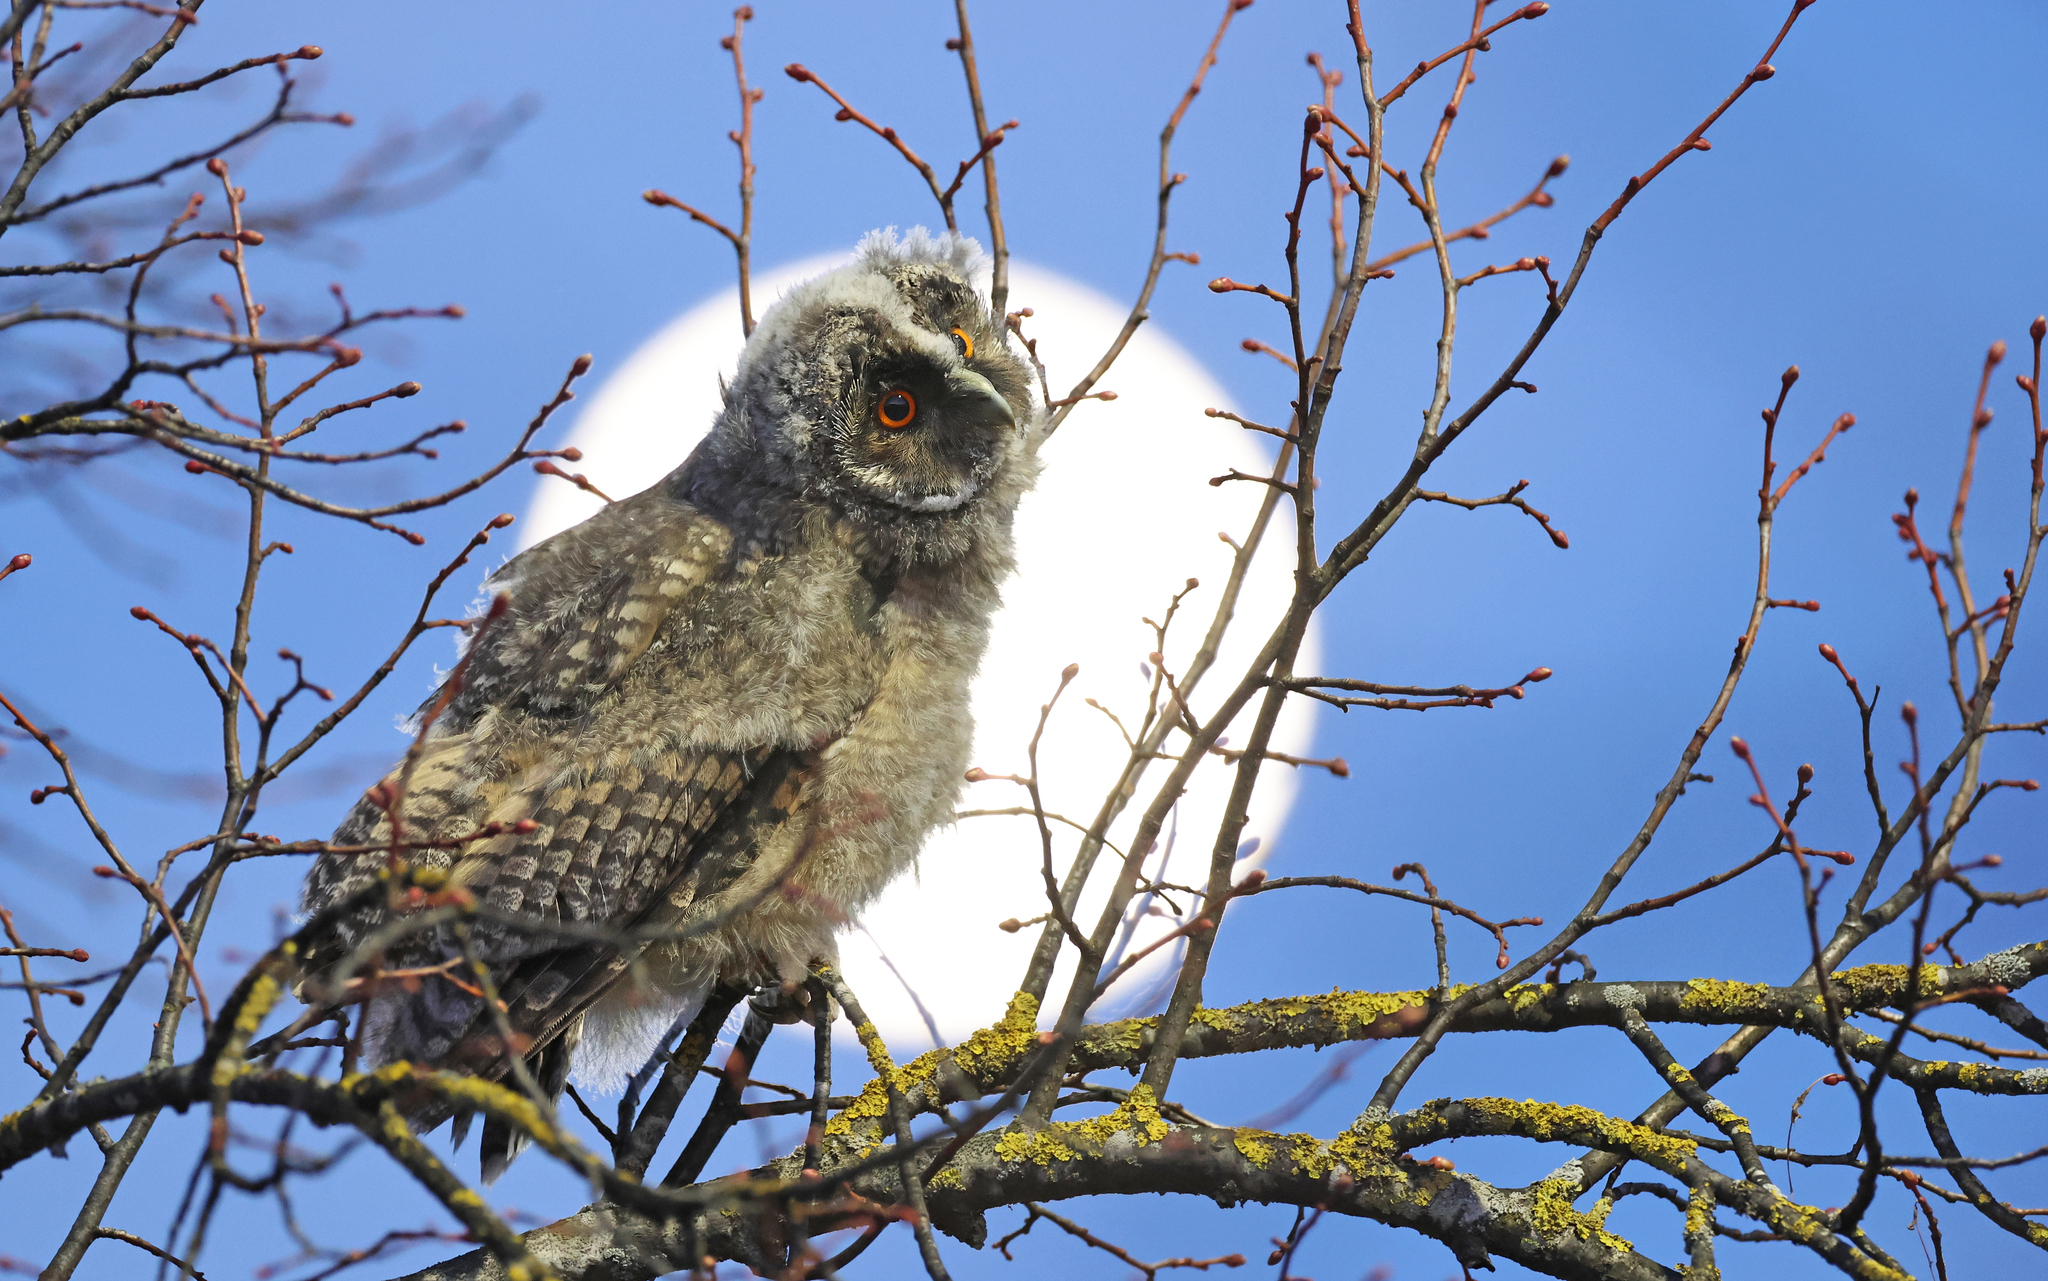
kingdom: Animalia
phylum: Chordata
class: Aves
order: Strigiformes
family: Strigidae
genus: Asio
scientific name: Asio otus
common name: Long-eared owl
